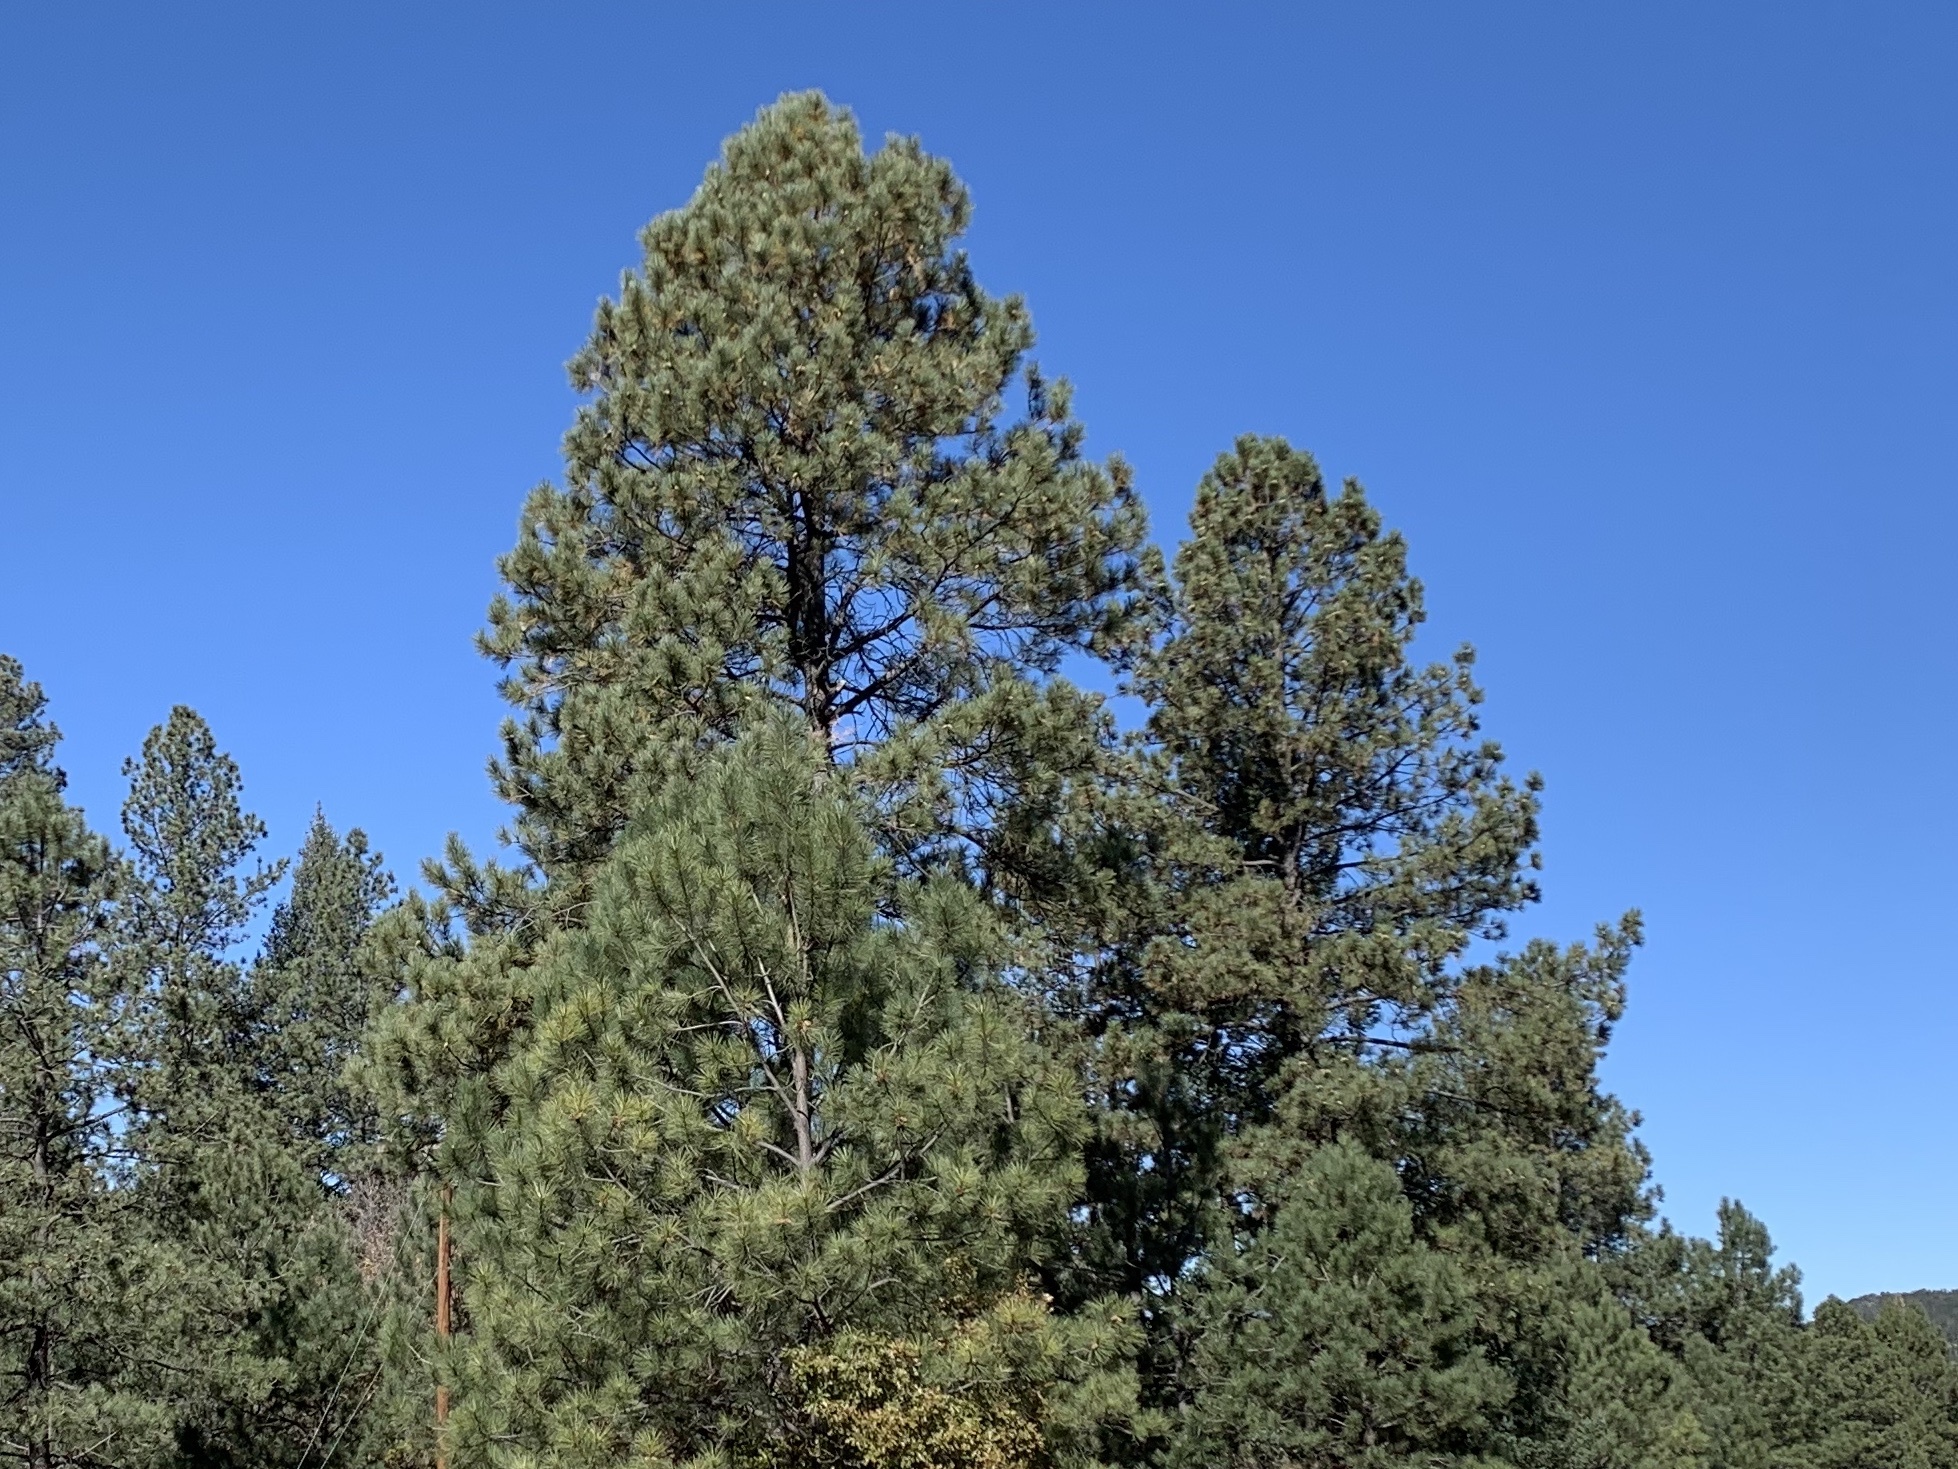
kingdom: Plantae
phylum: Tracheophyta
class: Pinopsida
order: Pinales
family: Pinaceae
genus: Pinus
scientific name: Pinus ponderosa
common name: Western yellow-pine
